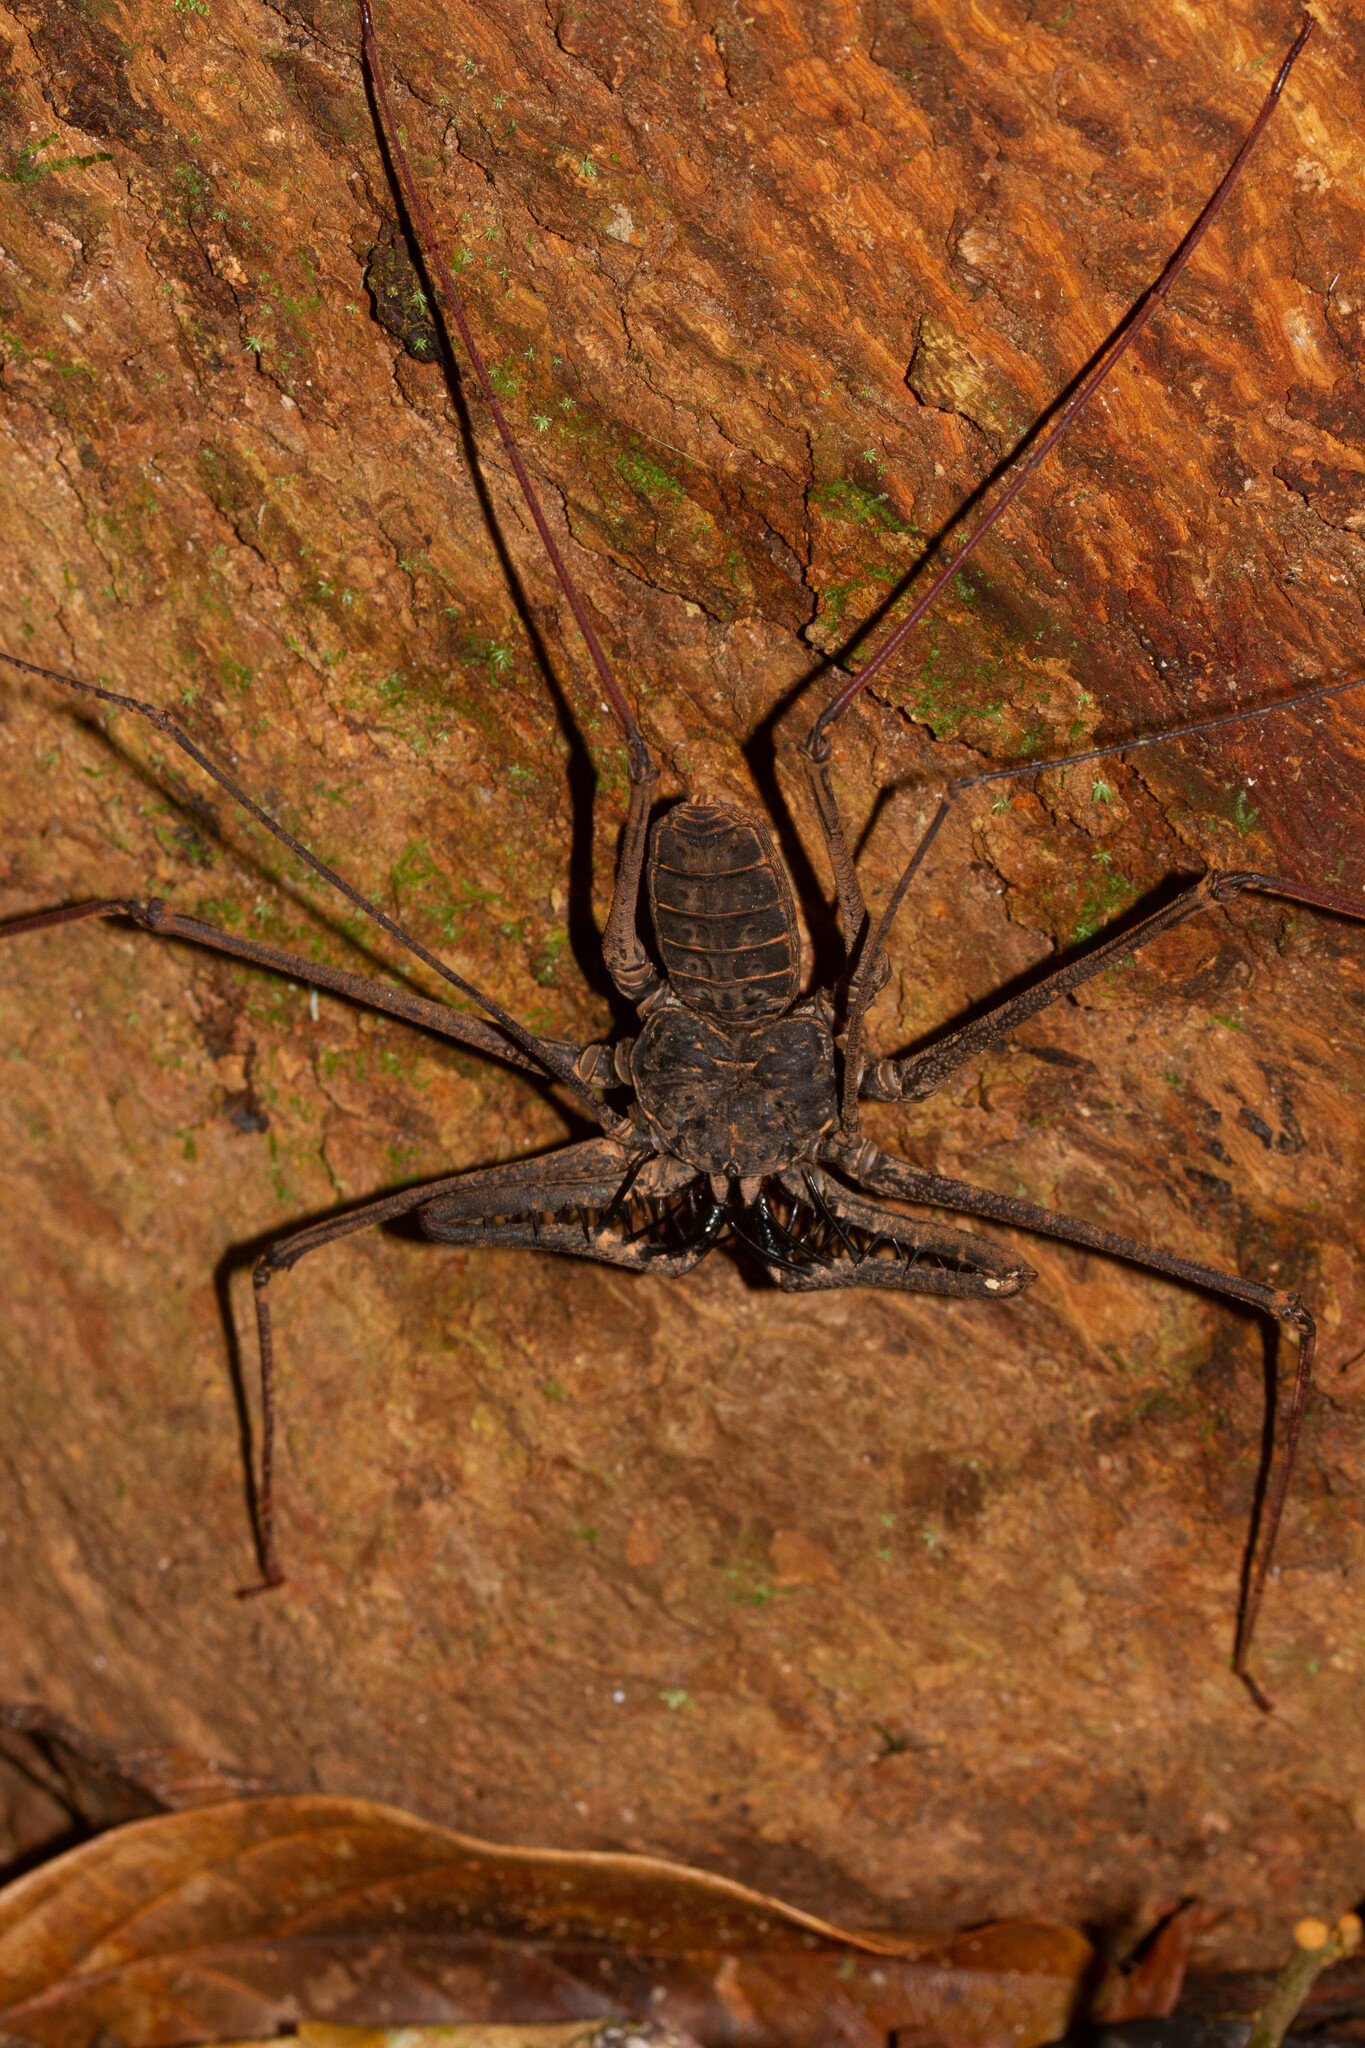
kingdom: Animalia
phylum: Arthropoda
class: Arachnida
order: Amblypygi
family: Phrynidae
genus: Heterophrynus
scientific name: Heterophrynus longicornis
